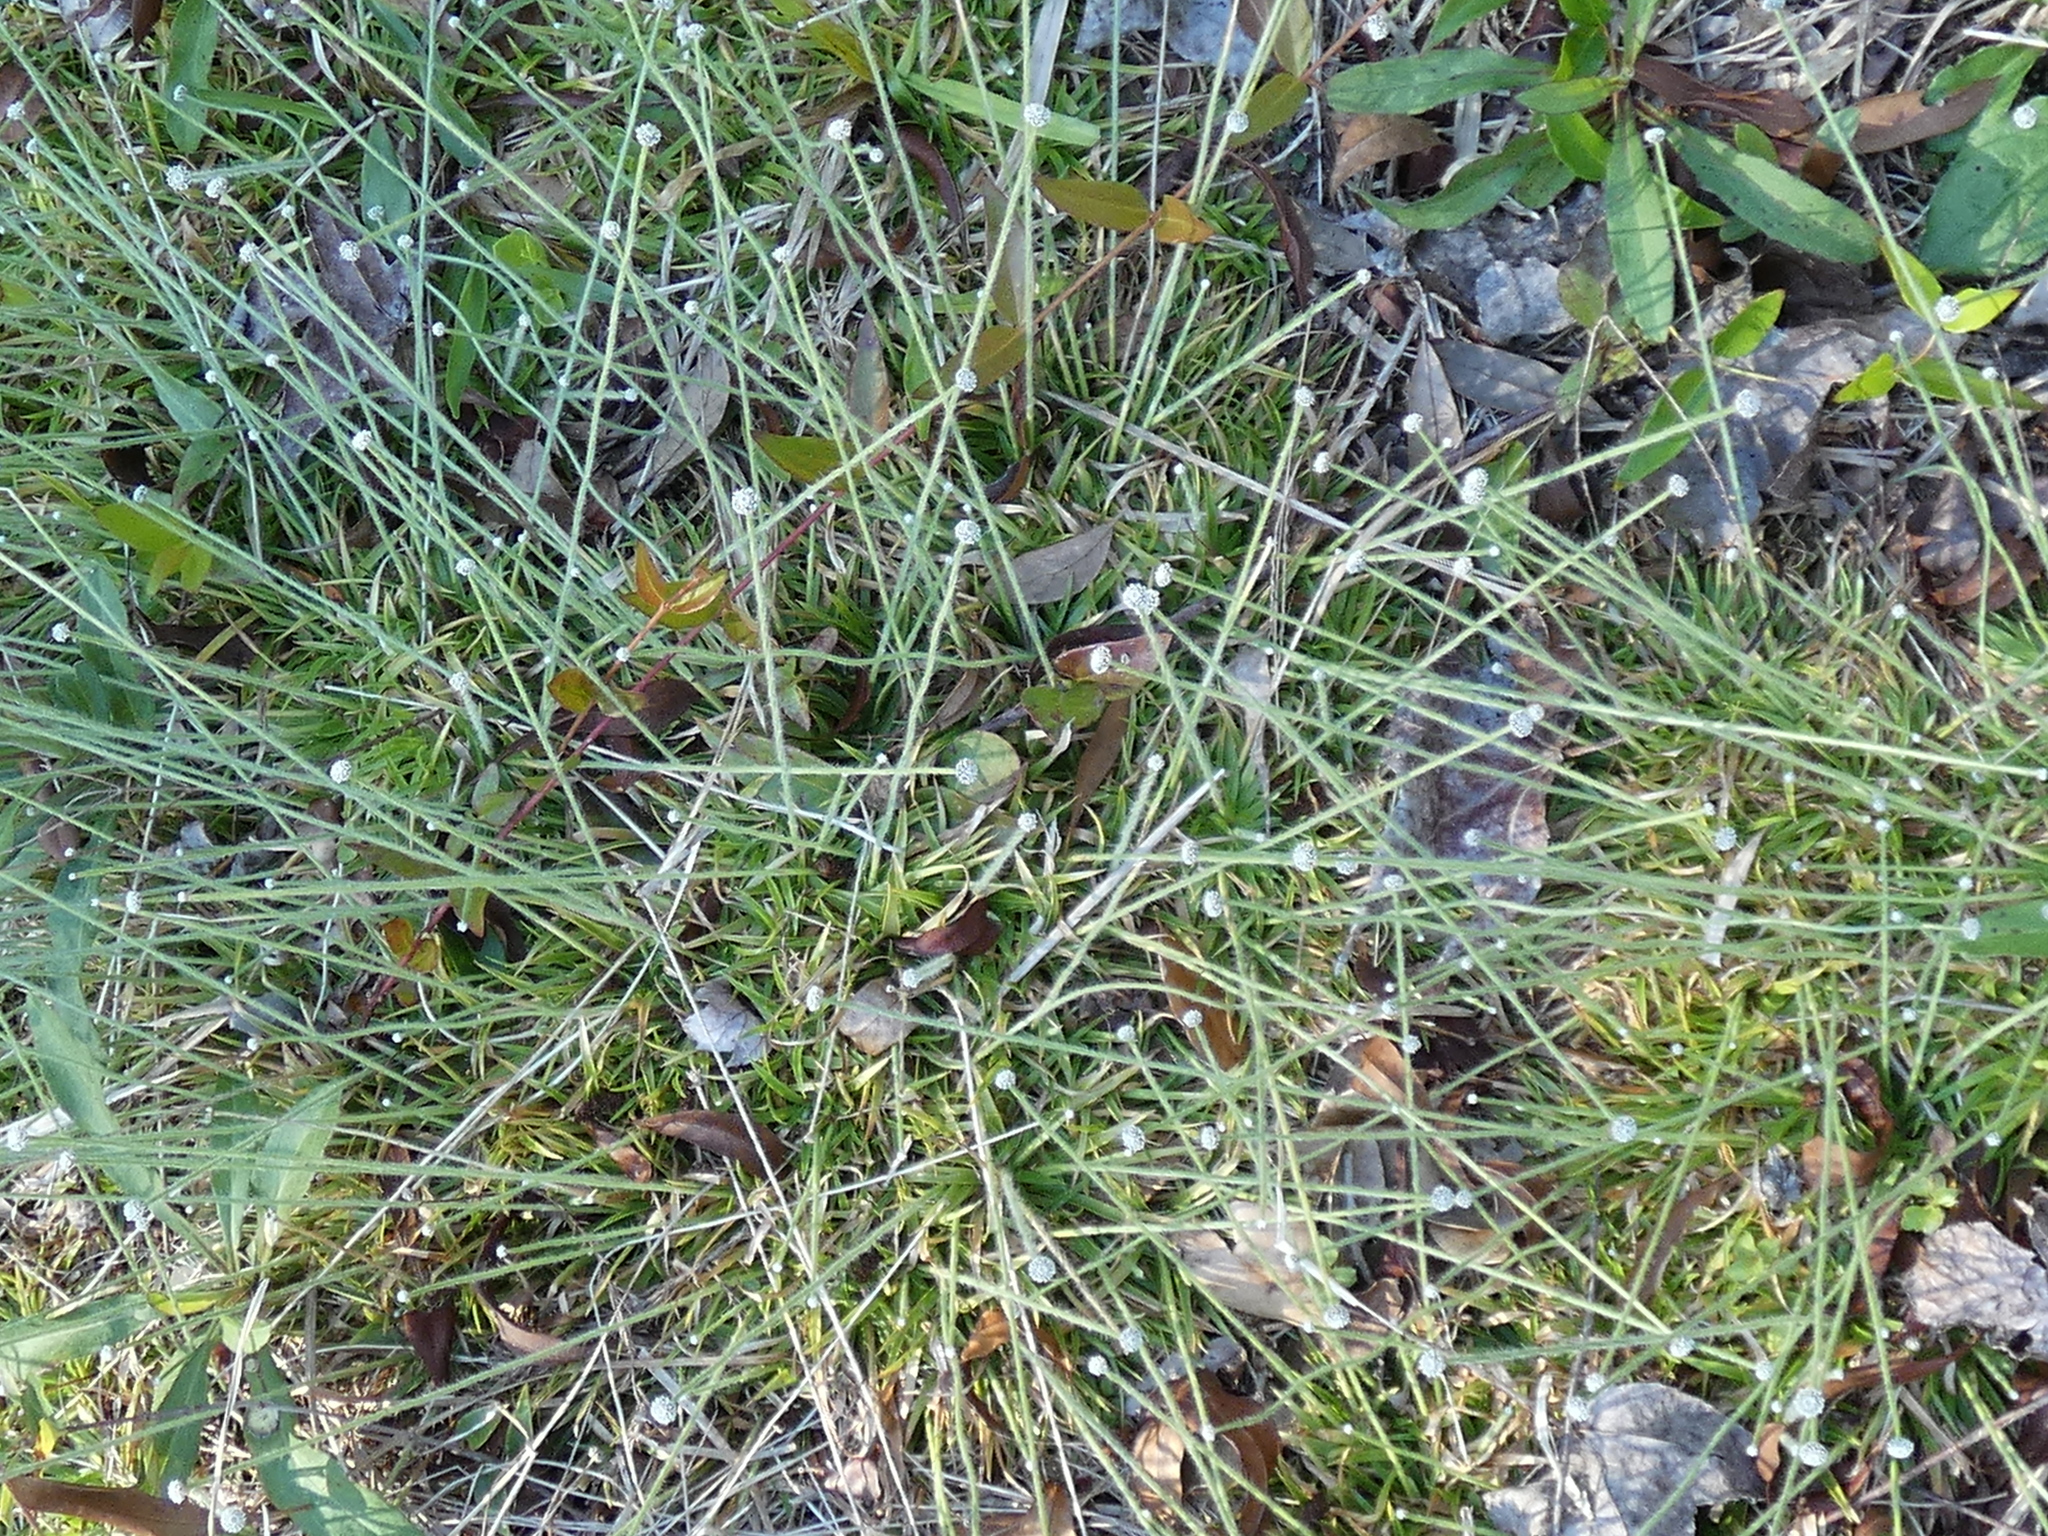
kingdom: Plantae
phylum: Tracheophyta
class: Liliopsida
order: Poales
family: Eriocaulaceae
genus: Paepalanthus
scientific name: Paepalanthus anceps
